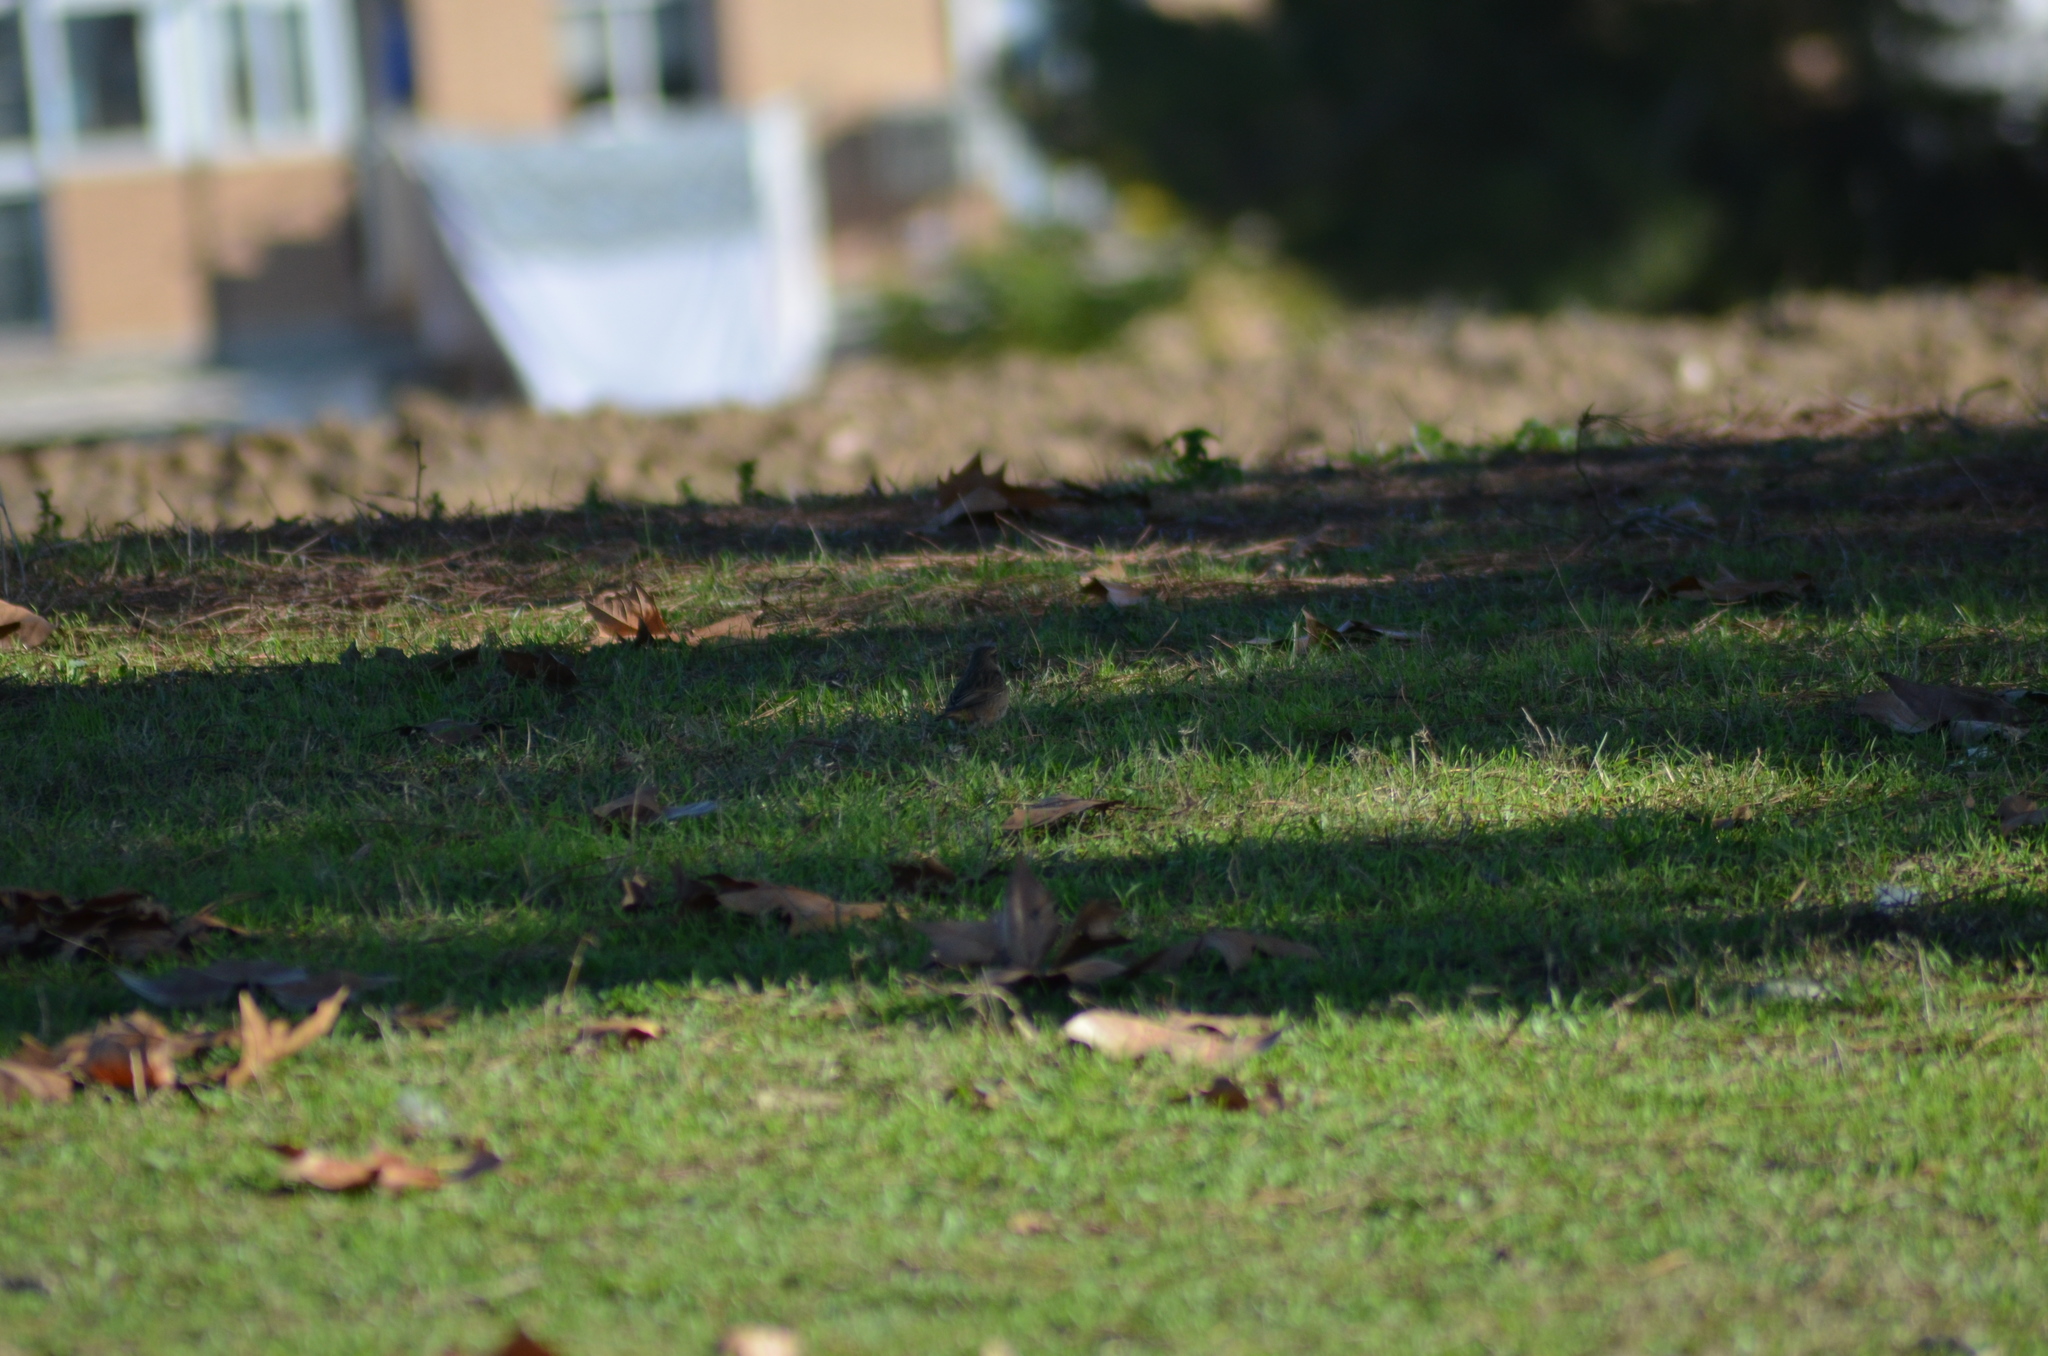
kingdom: Animalia
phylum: Chordata
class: Aves
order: Passeriformes
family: Muscicapidae
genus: Saxicola
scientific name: Saxicola rubicola
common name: European stonechat
